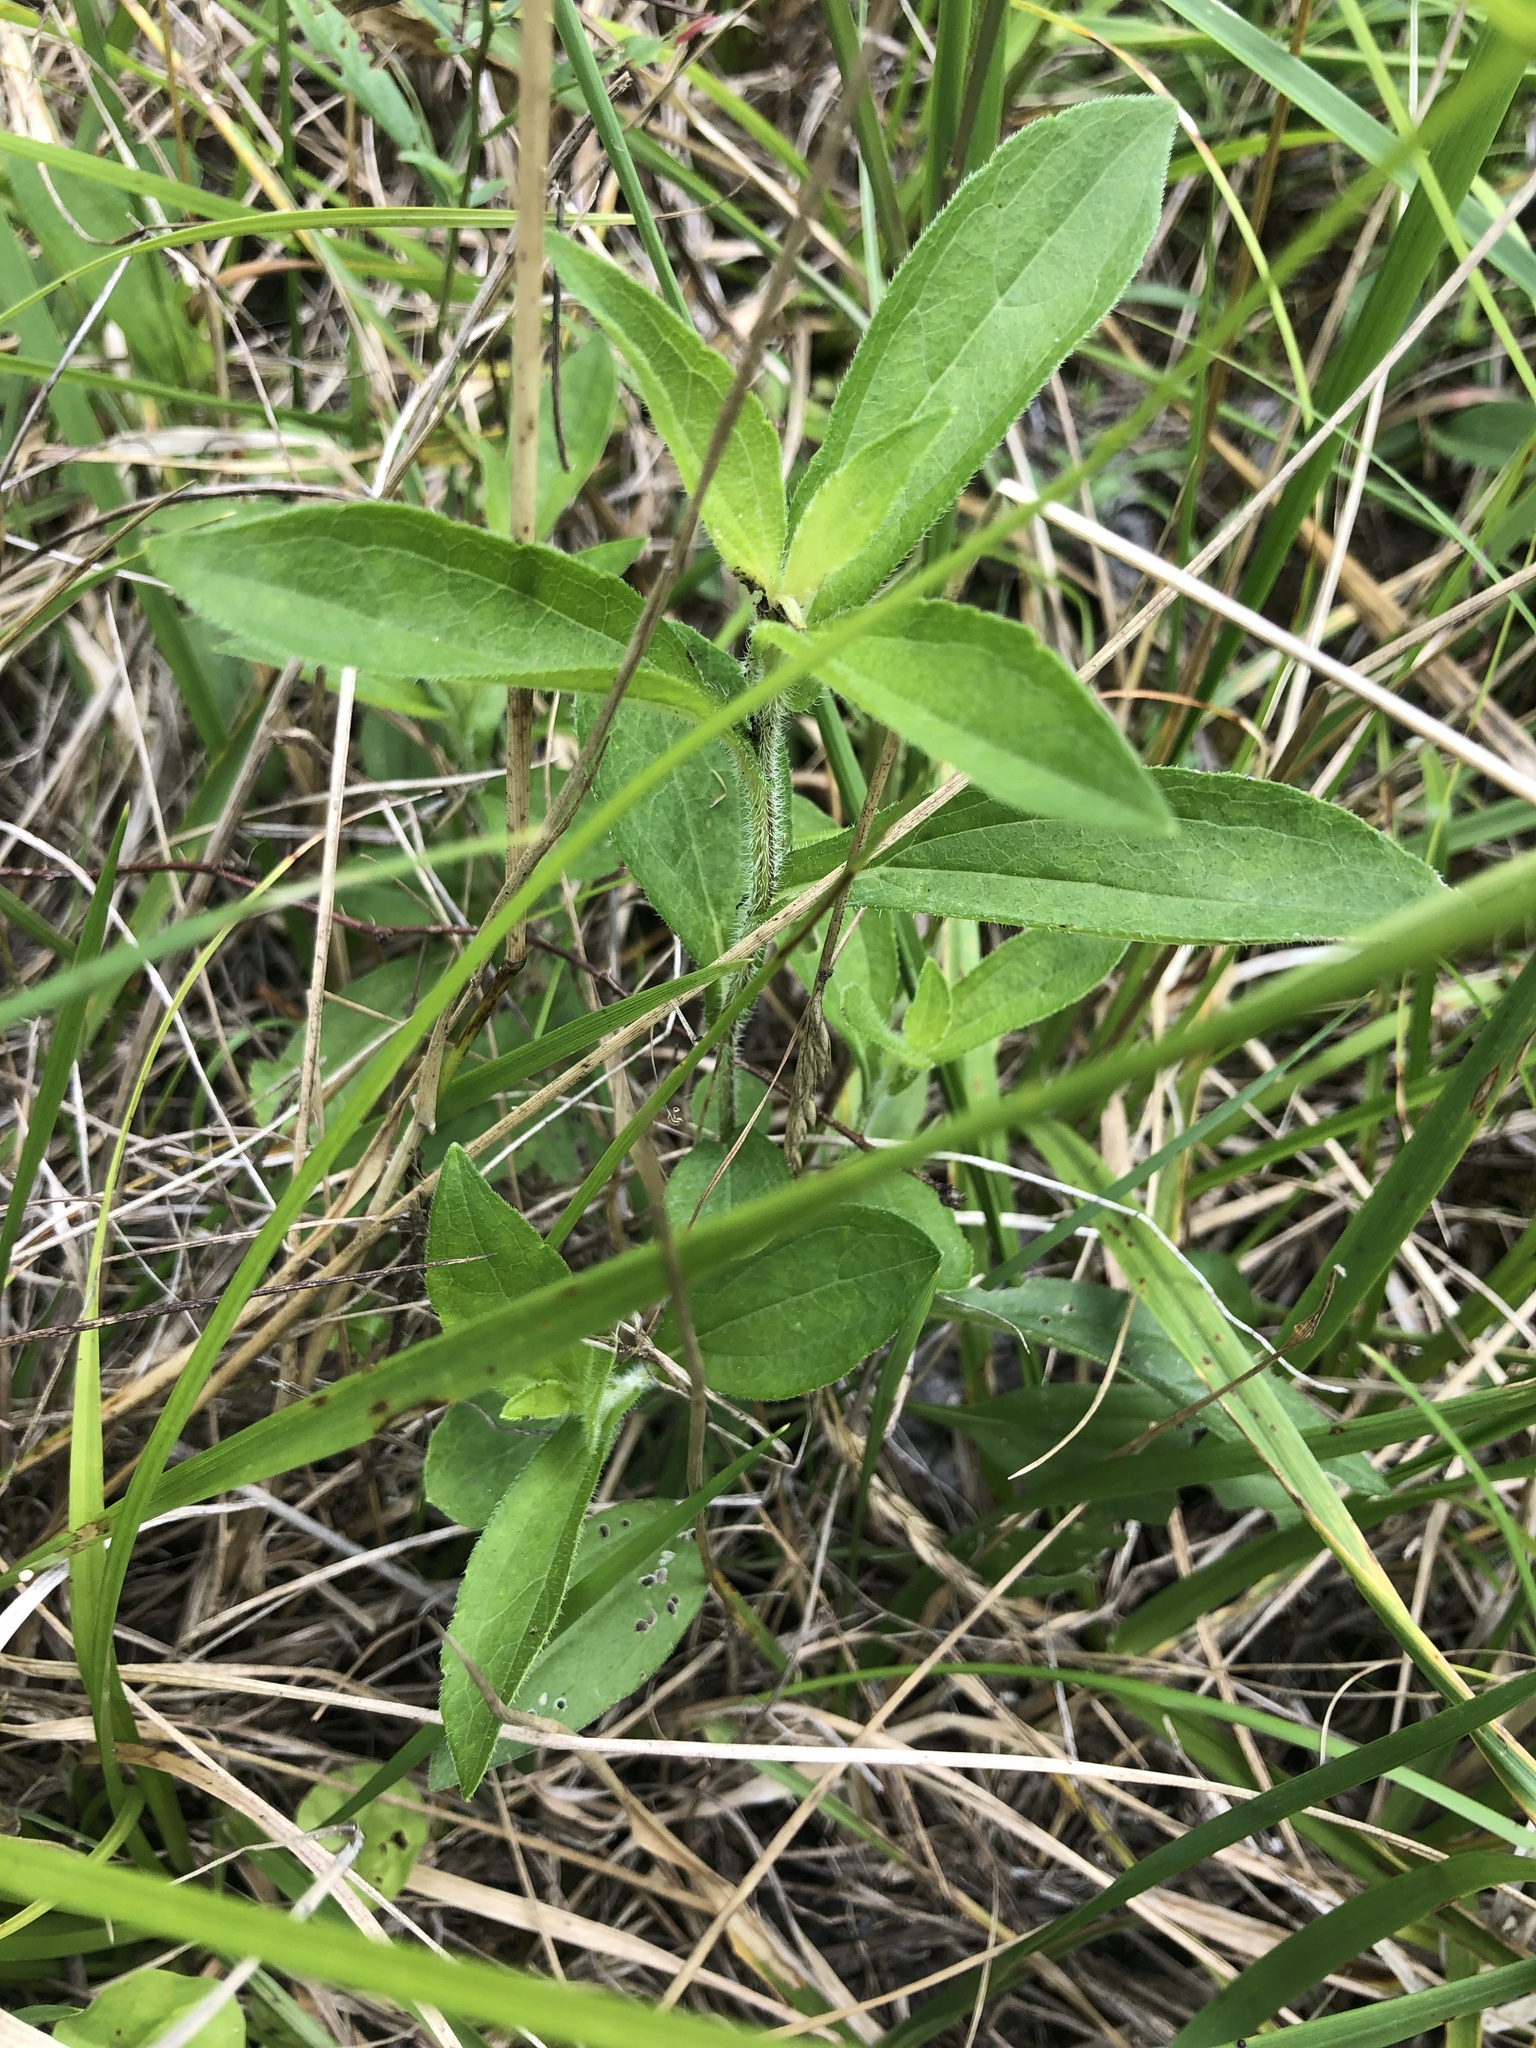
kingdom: Plantae
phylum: Tracheophyta
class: Magnoliopsida
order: Asterales
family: Asteraceae
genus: Rudbeckia
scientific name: Rudbeckia terranigrae
